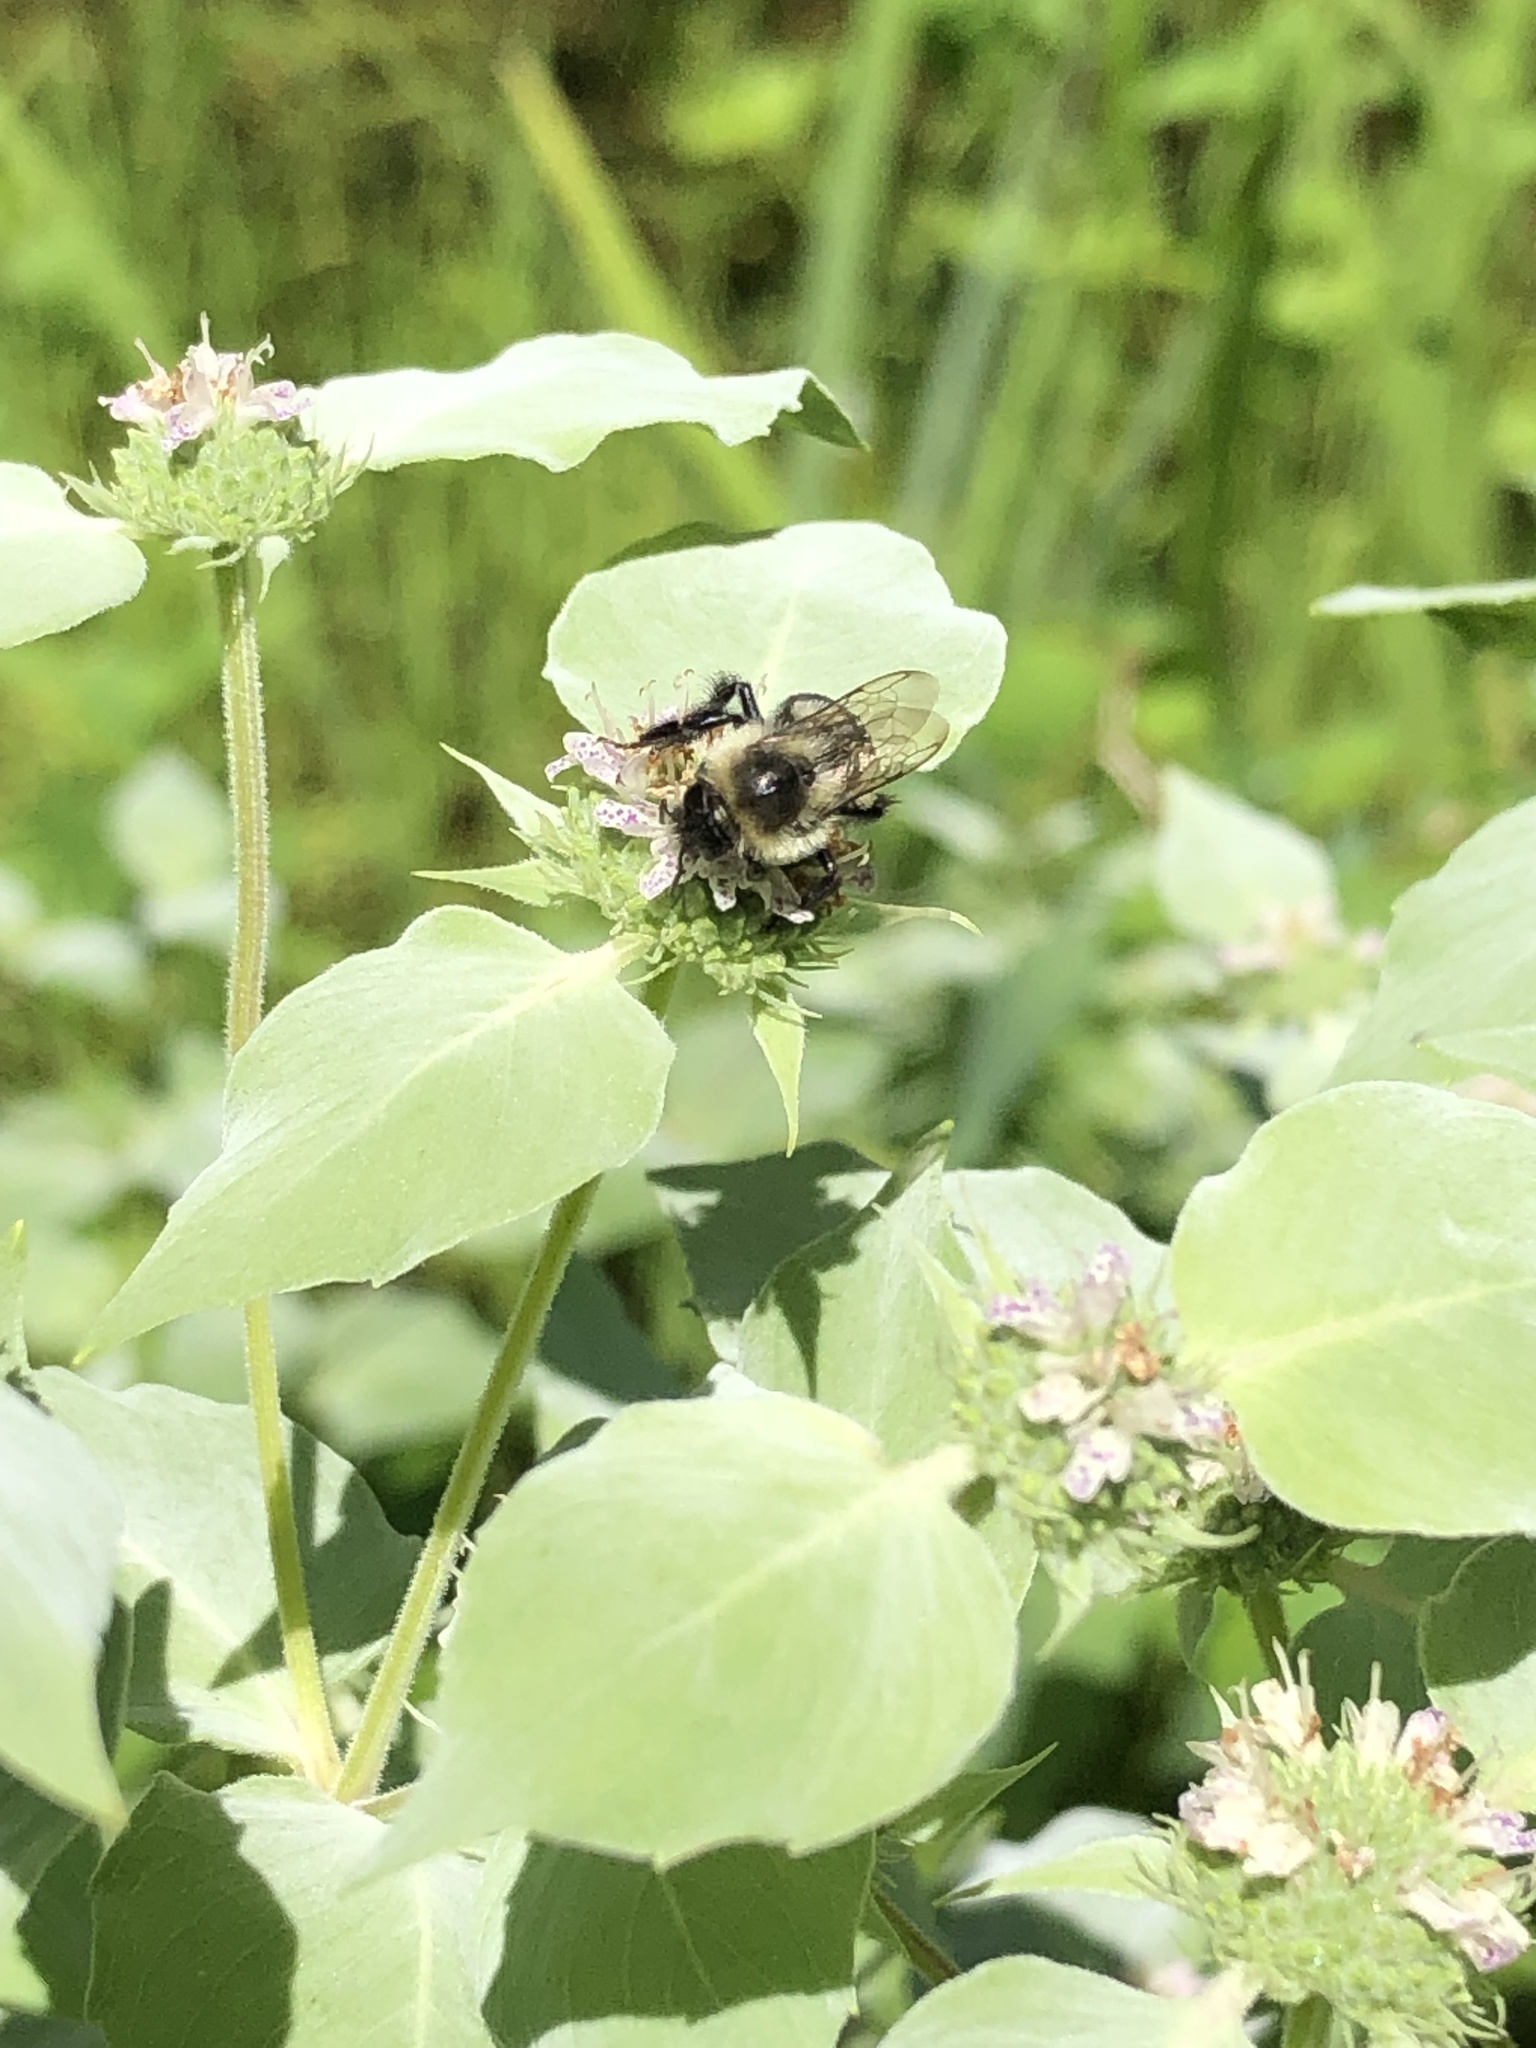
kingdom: Animalia
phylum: Arthropoda
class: Insecta
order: Hymenoptera
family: Apidae
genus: Bombus
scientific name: Bombus impatiens
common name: Common eastern bumble bee
